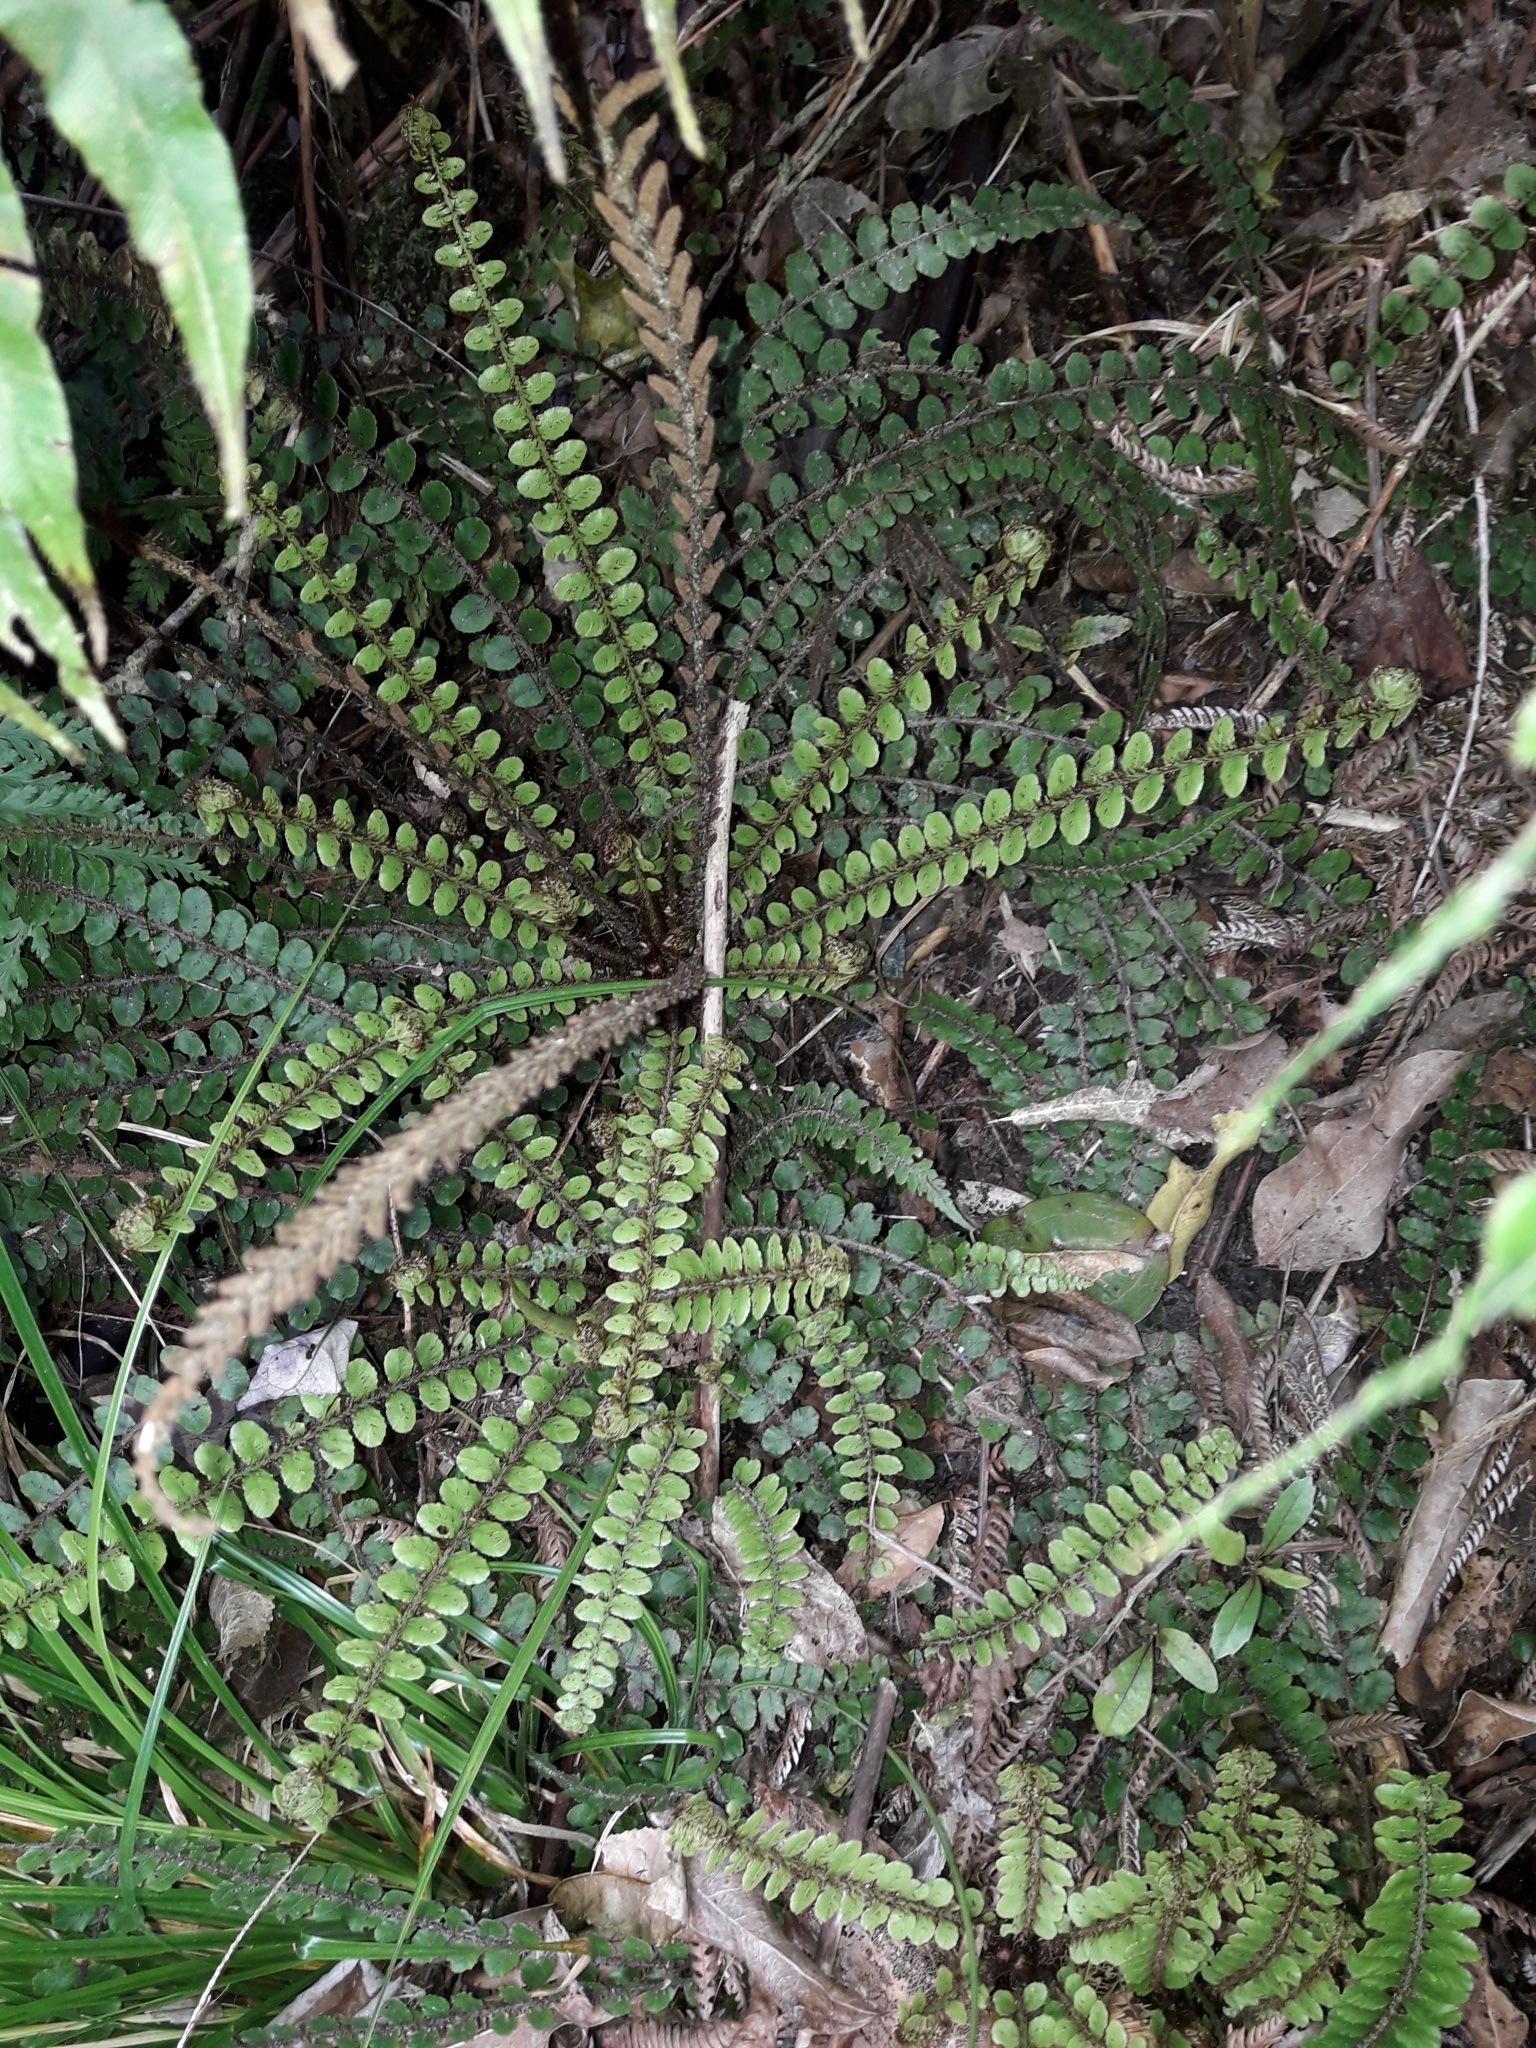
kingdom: Plantae
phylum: Tracheophyta
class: Polypodiopsida
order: Polypodiales
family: Blechnaceae
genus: Cranfillia
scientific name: Cranfillia fluviatilis
